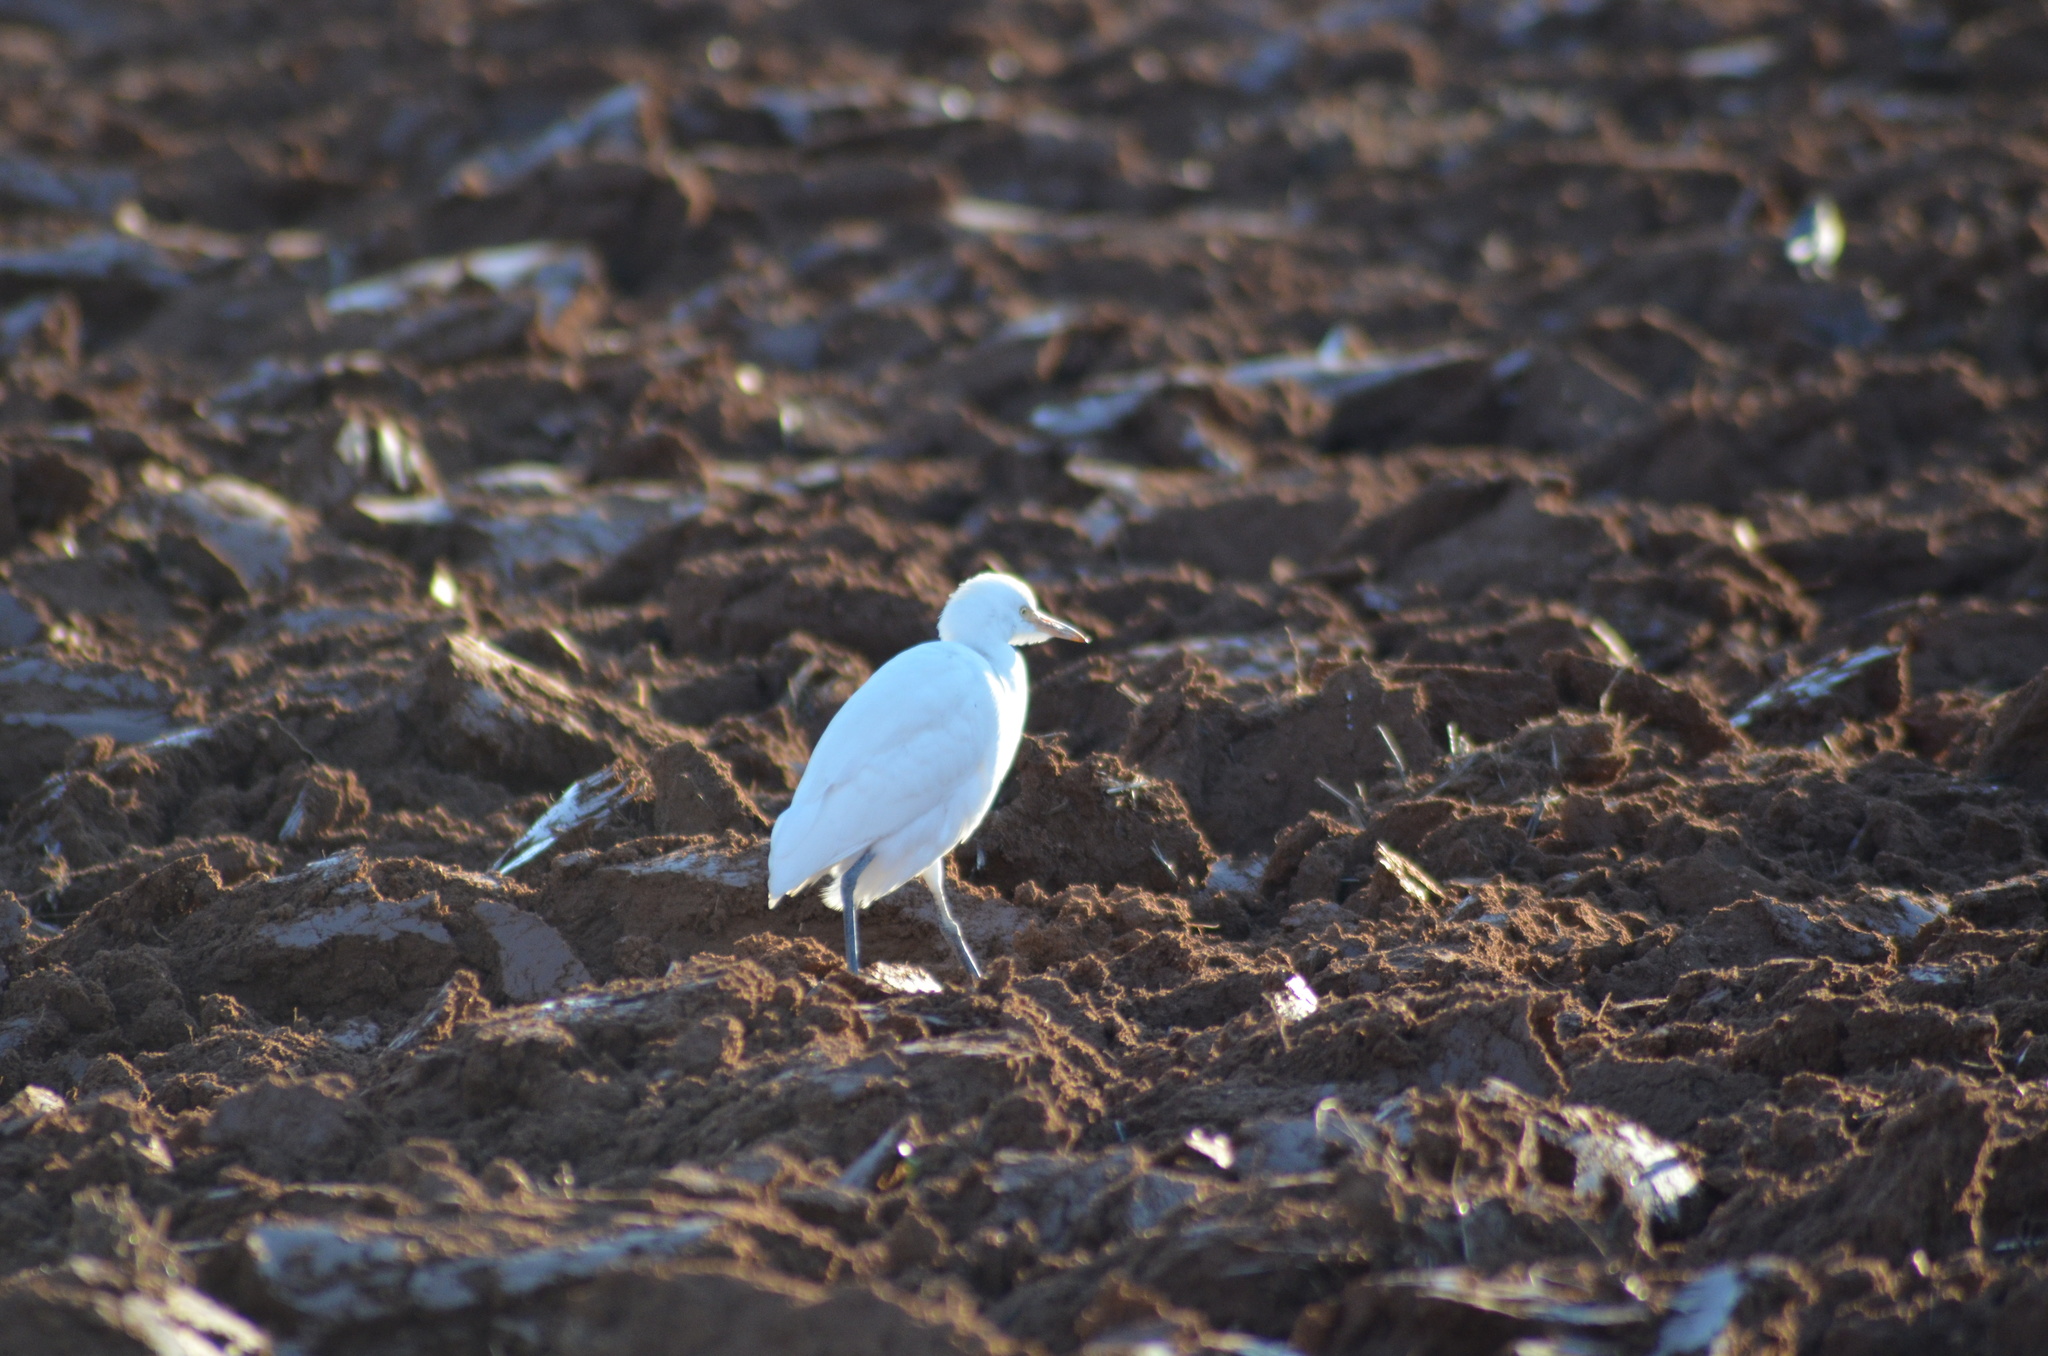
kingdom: Animalia
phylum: Chordata
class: Aves
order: Pelecaniformes
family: Ardeidae
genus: Bubulcus
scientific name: Bubulcus ibis
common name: Cattle egret
